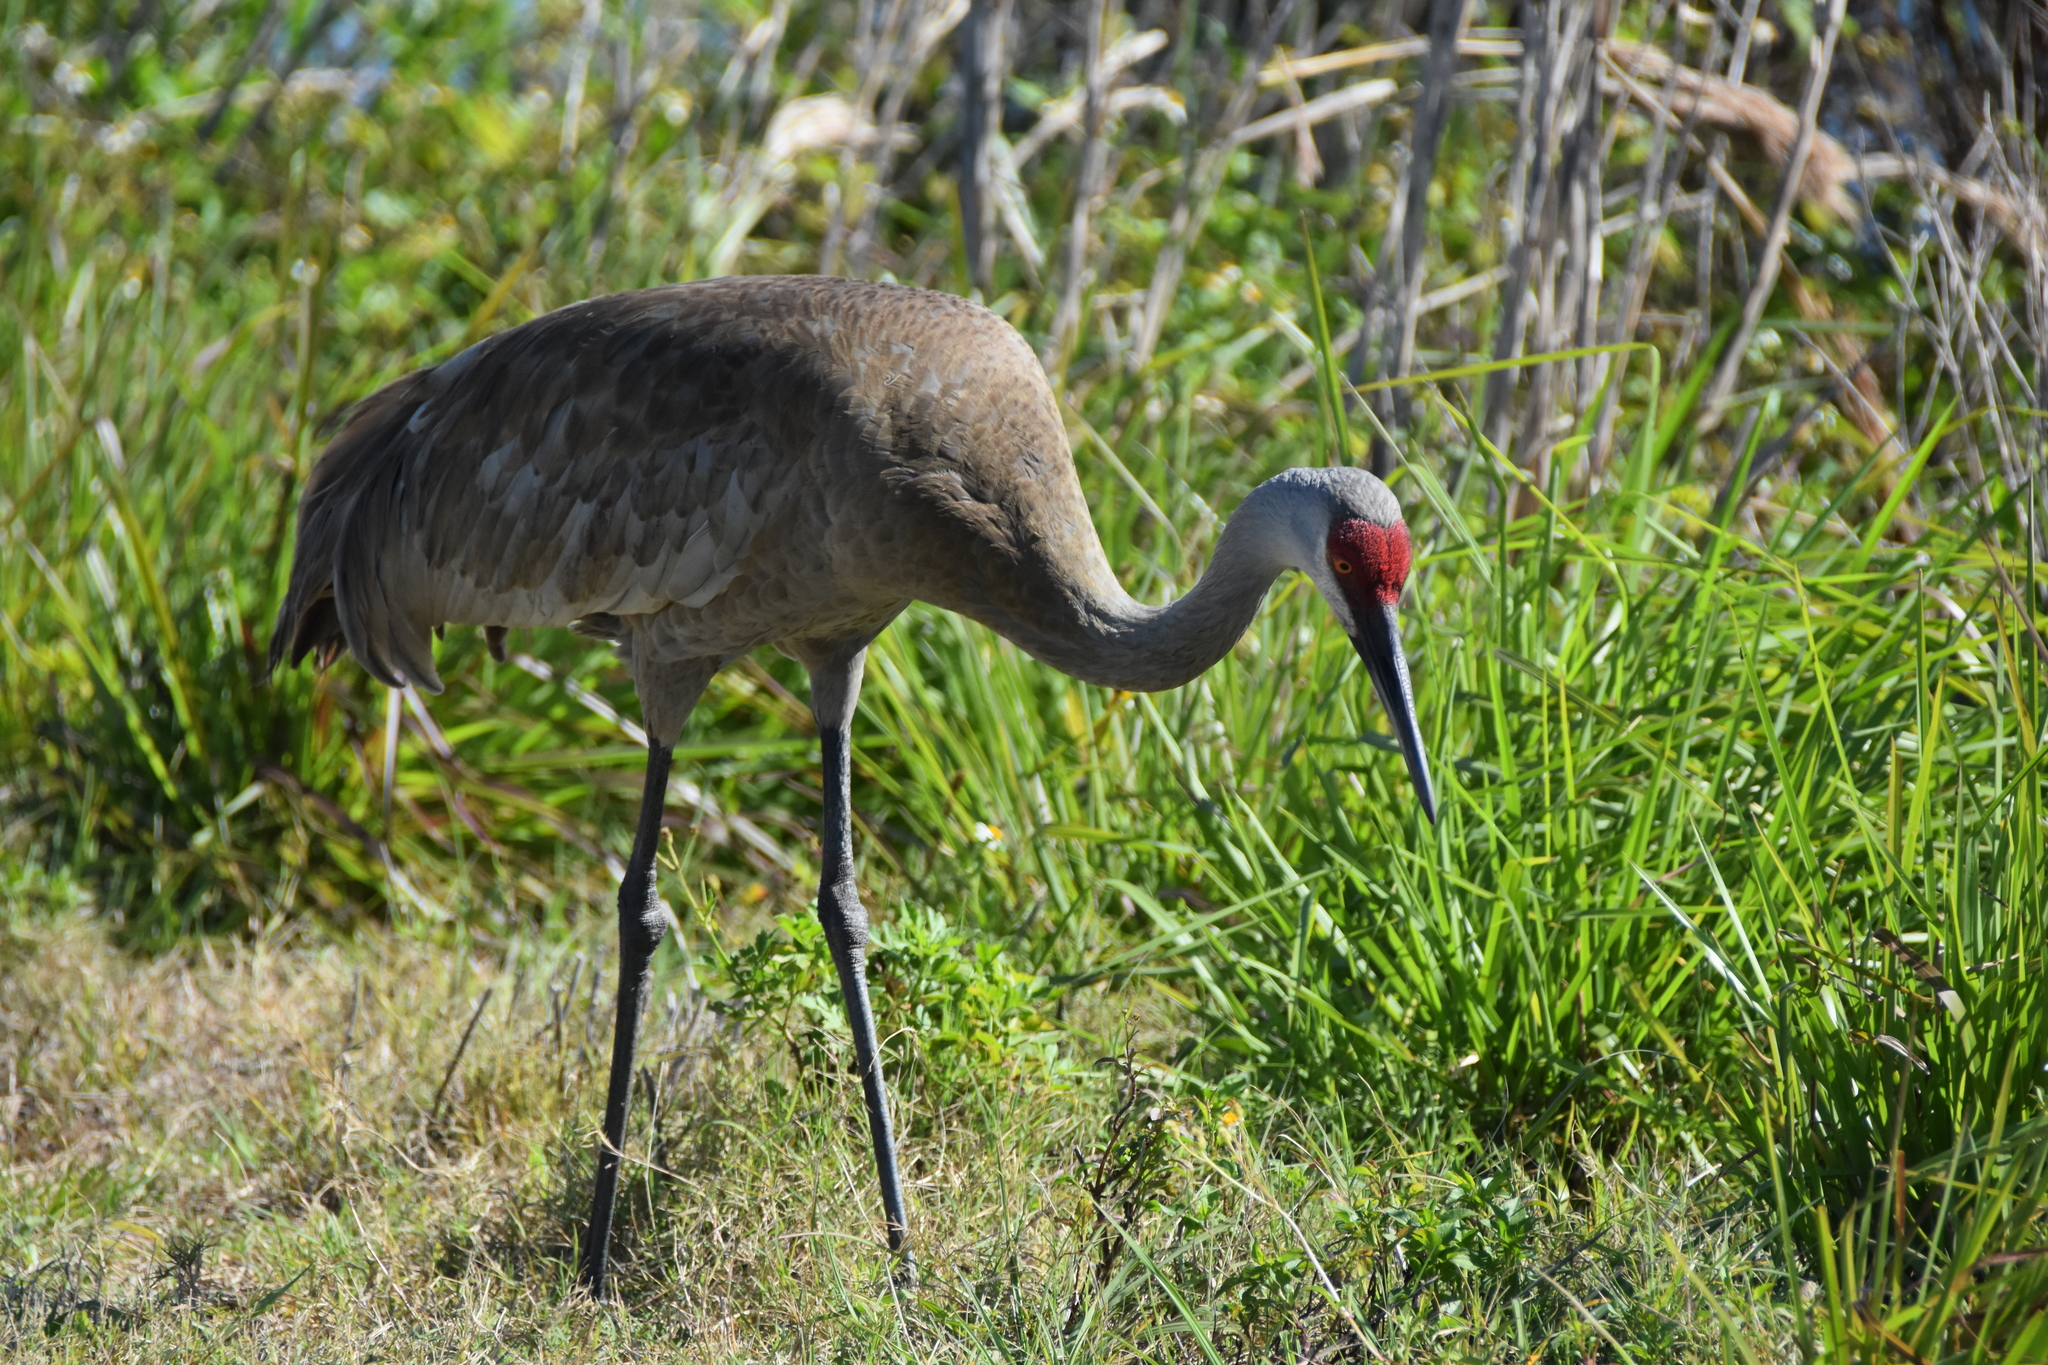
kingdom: Animalia
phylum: Chordata
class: Aves
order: Gruiformes
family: Gruidae
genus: Grus
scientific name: Grus canadensis
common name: Sandhill crane
